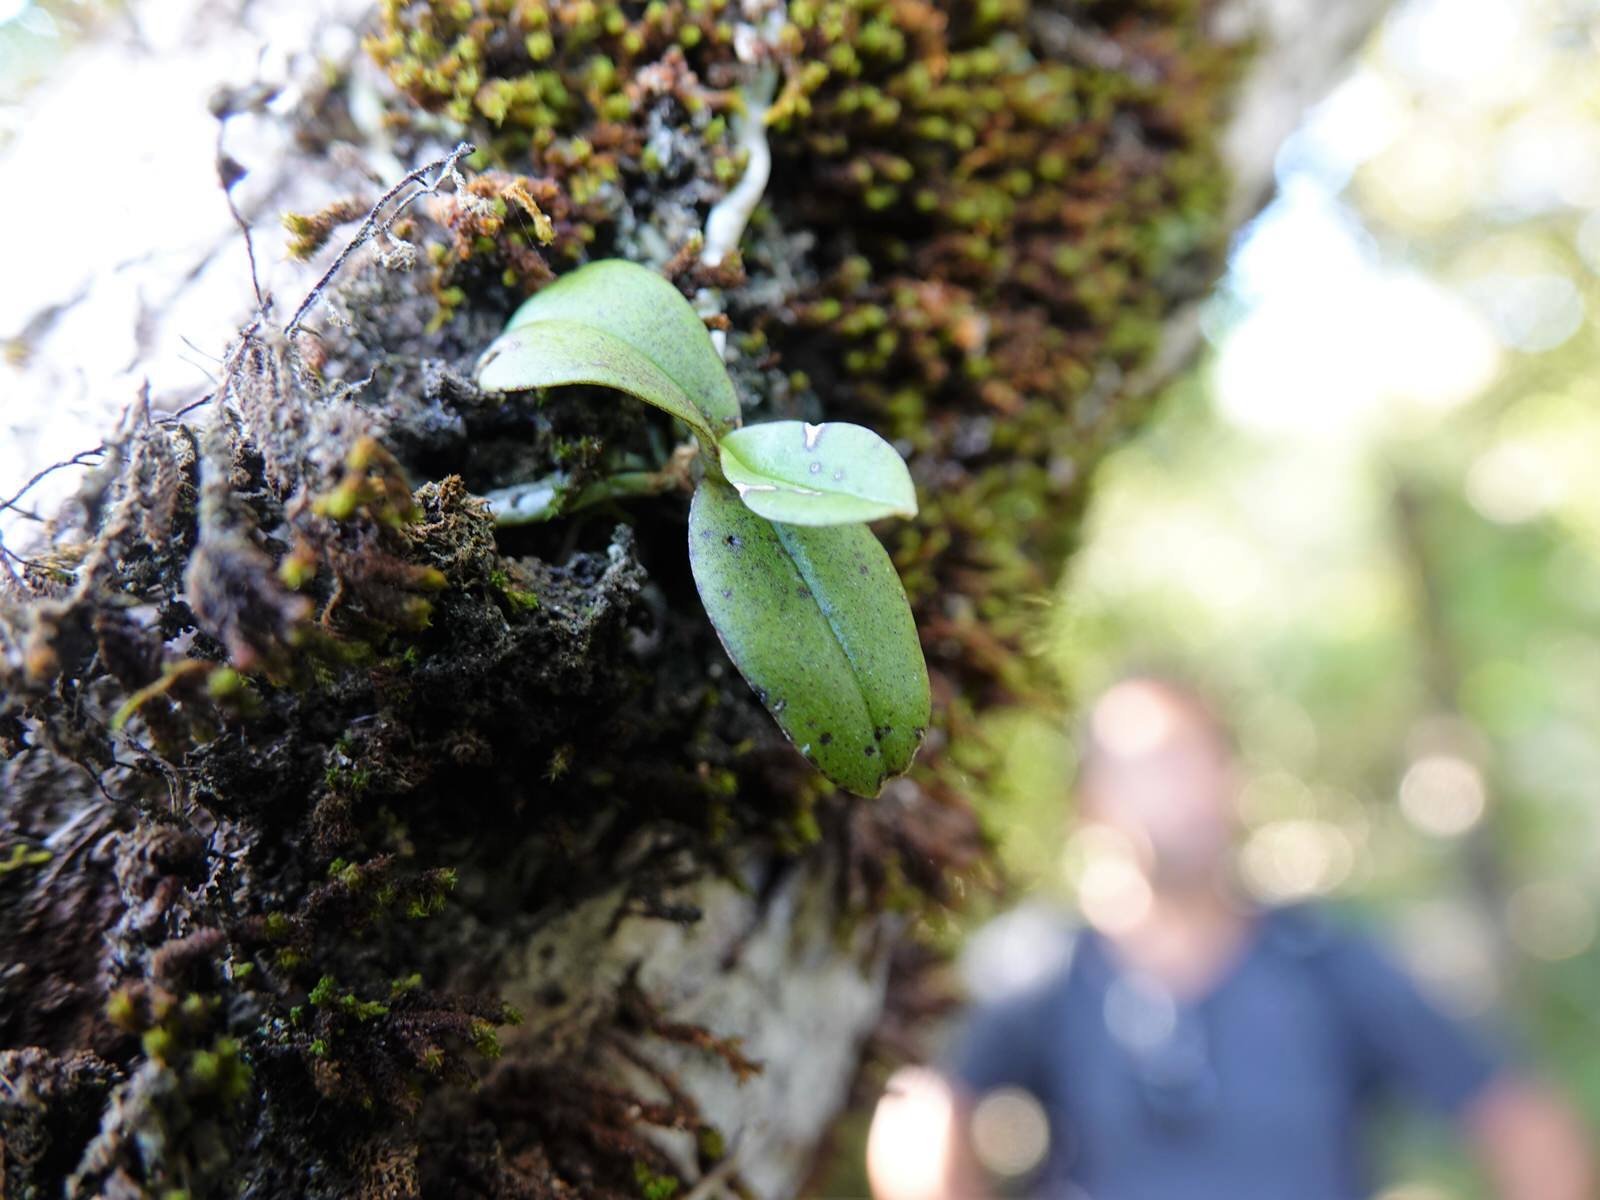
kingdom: Plantae
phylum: Tracheophyta
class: Liliopsida
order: Asparagales
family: Orchidaceae
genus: Drymoanthus
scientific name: Drymoanthus adversus
